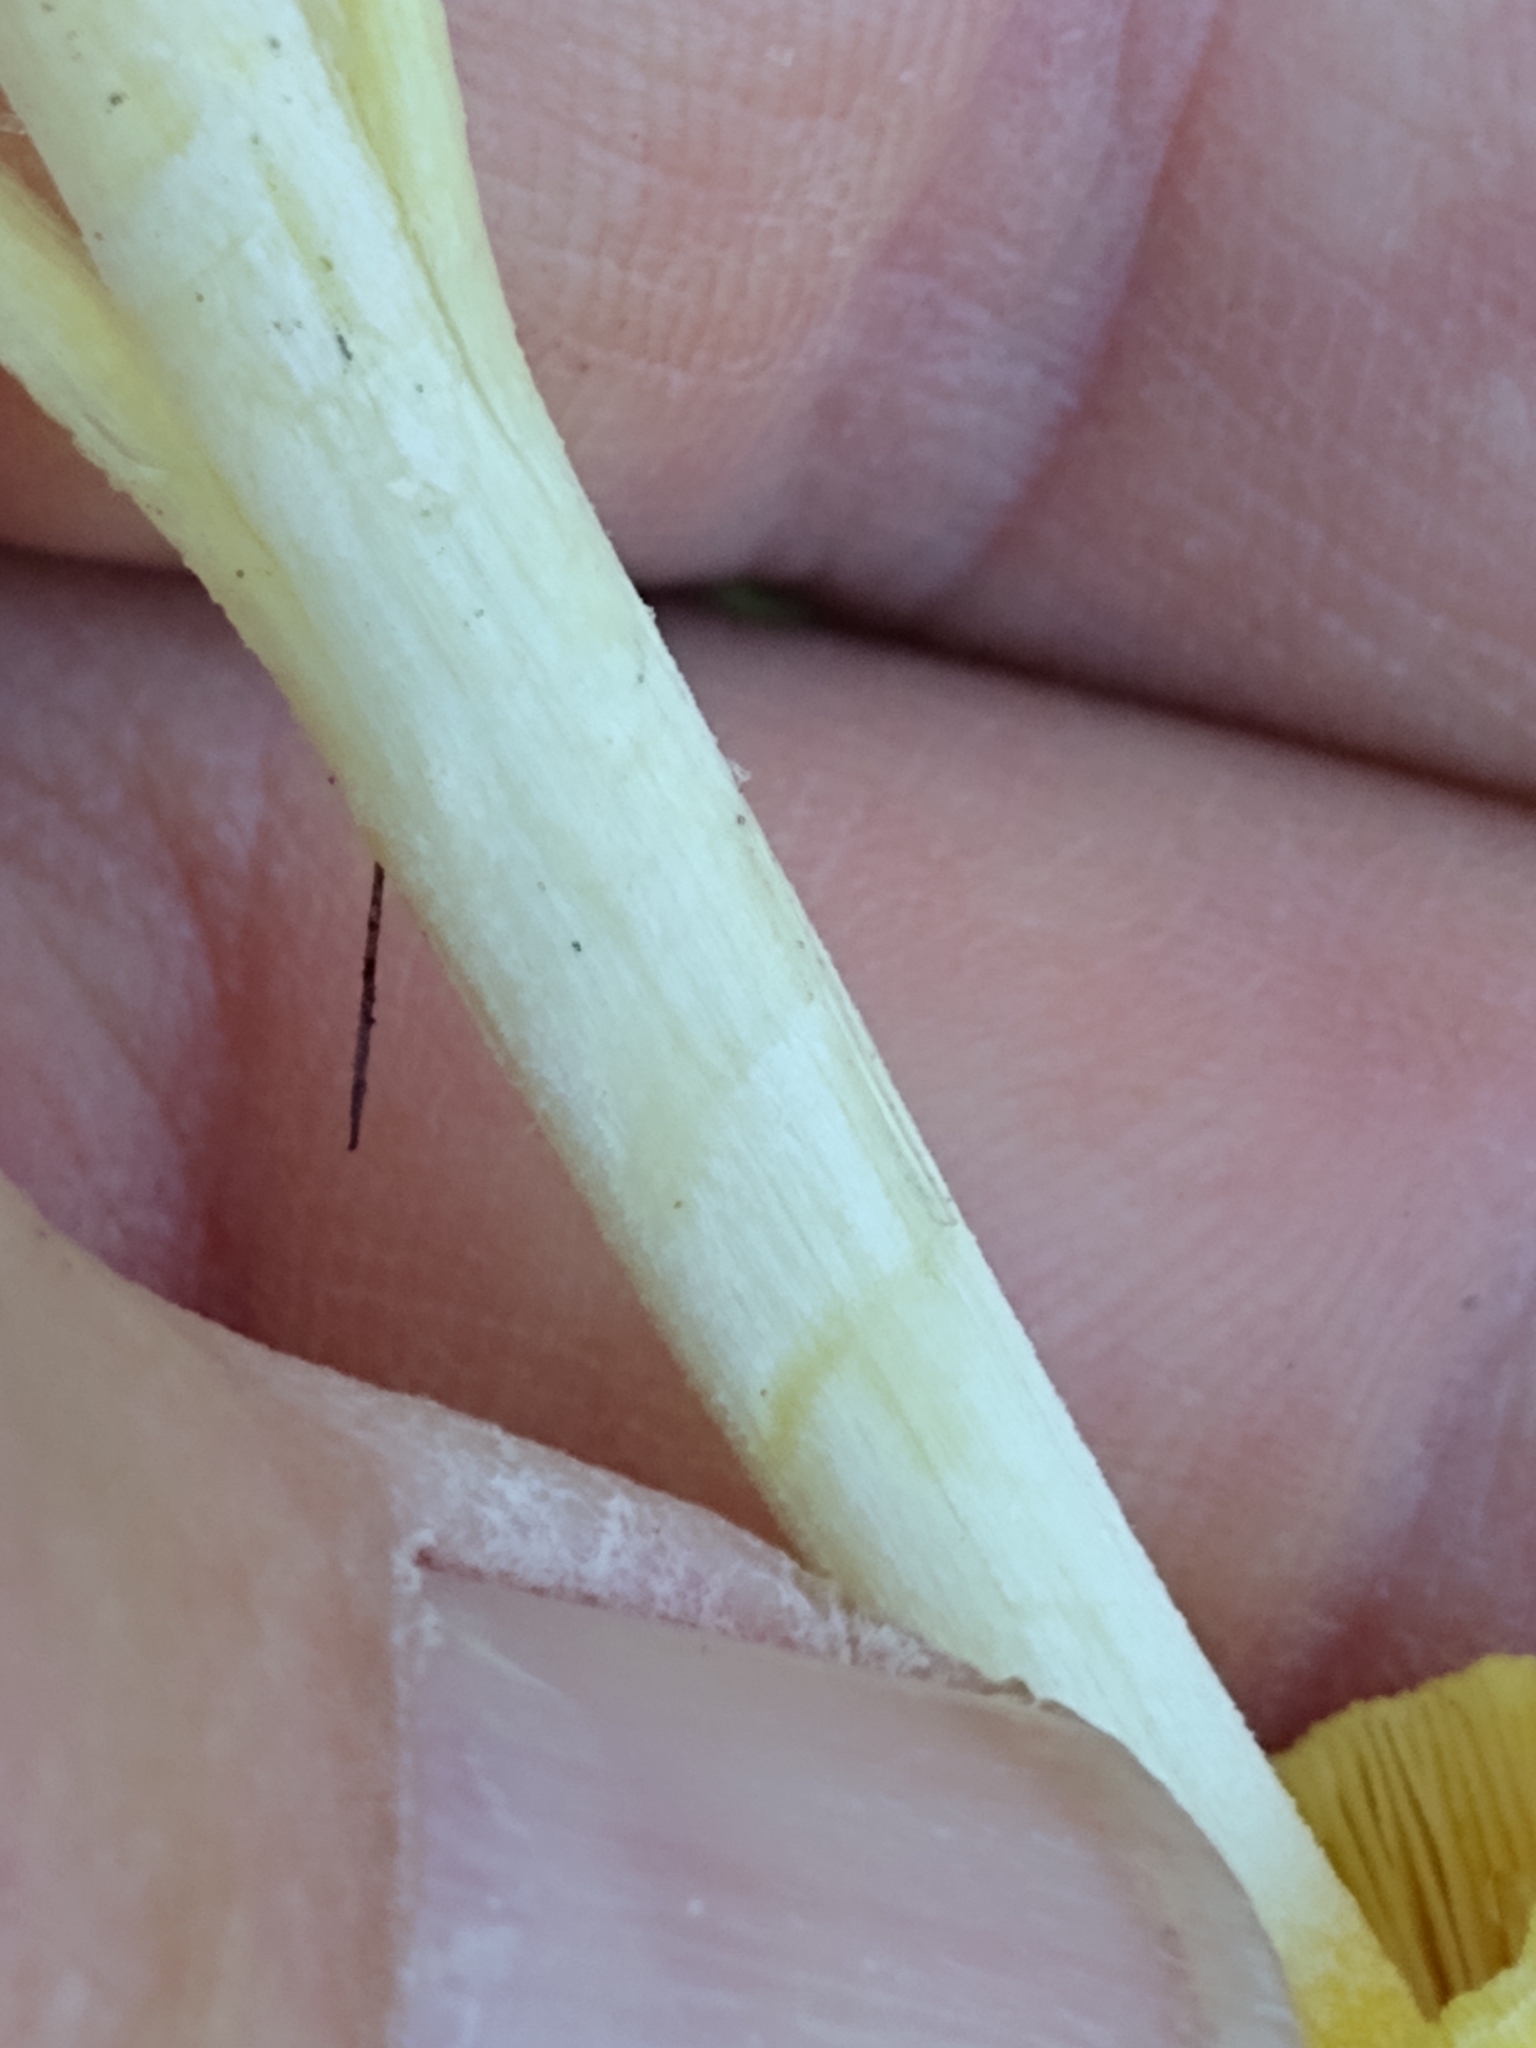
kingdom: Fungi
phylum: Basidiomycota
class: Agaricomycetes
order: Agaricales
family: Bolbitiaceae
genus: Bolbitius
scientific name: Bolbitius titubans
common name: Yellow fieldcap
